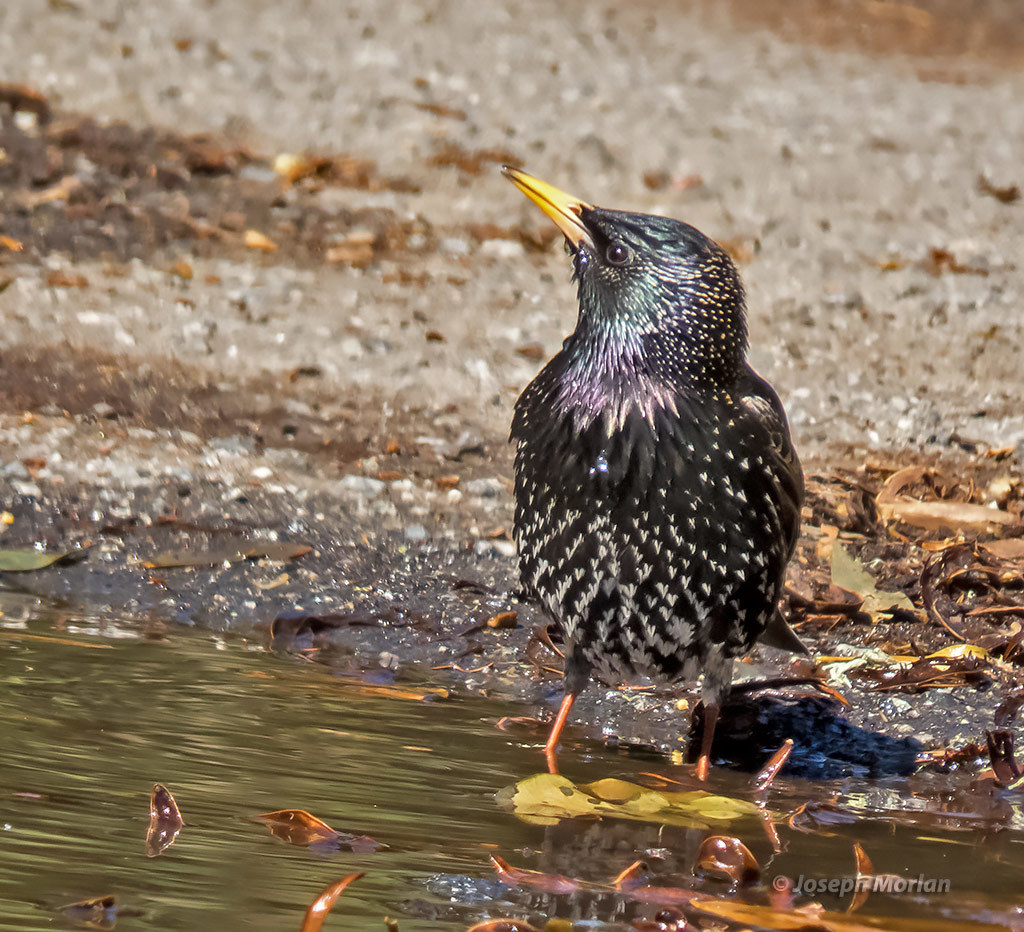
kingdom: Animalia
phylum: Chordata
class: Aves
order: Passeriformes
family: Sturnidae
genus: Sturnus
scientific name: Sturnus vulgaris
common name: Common starling
